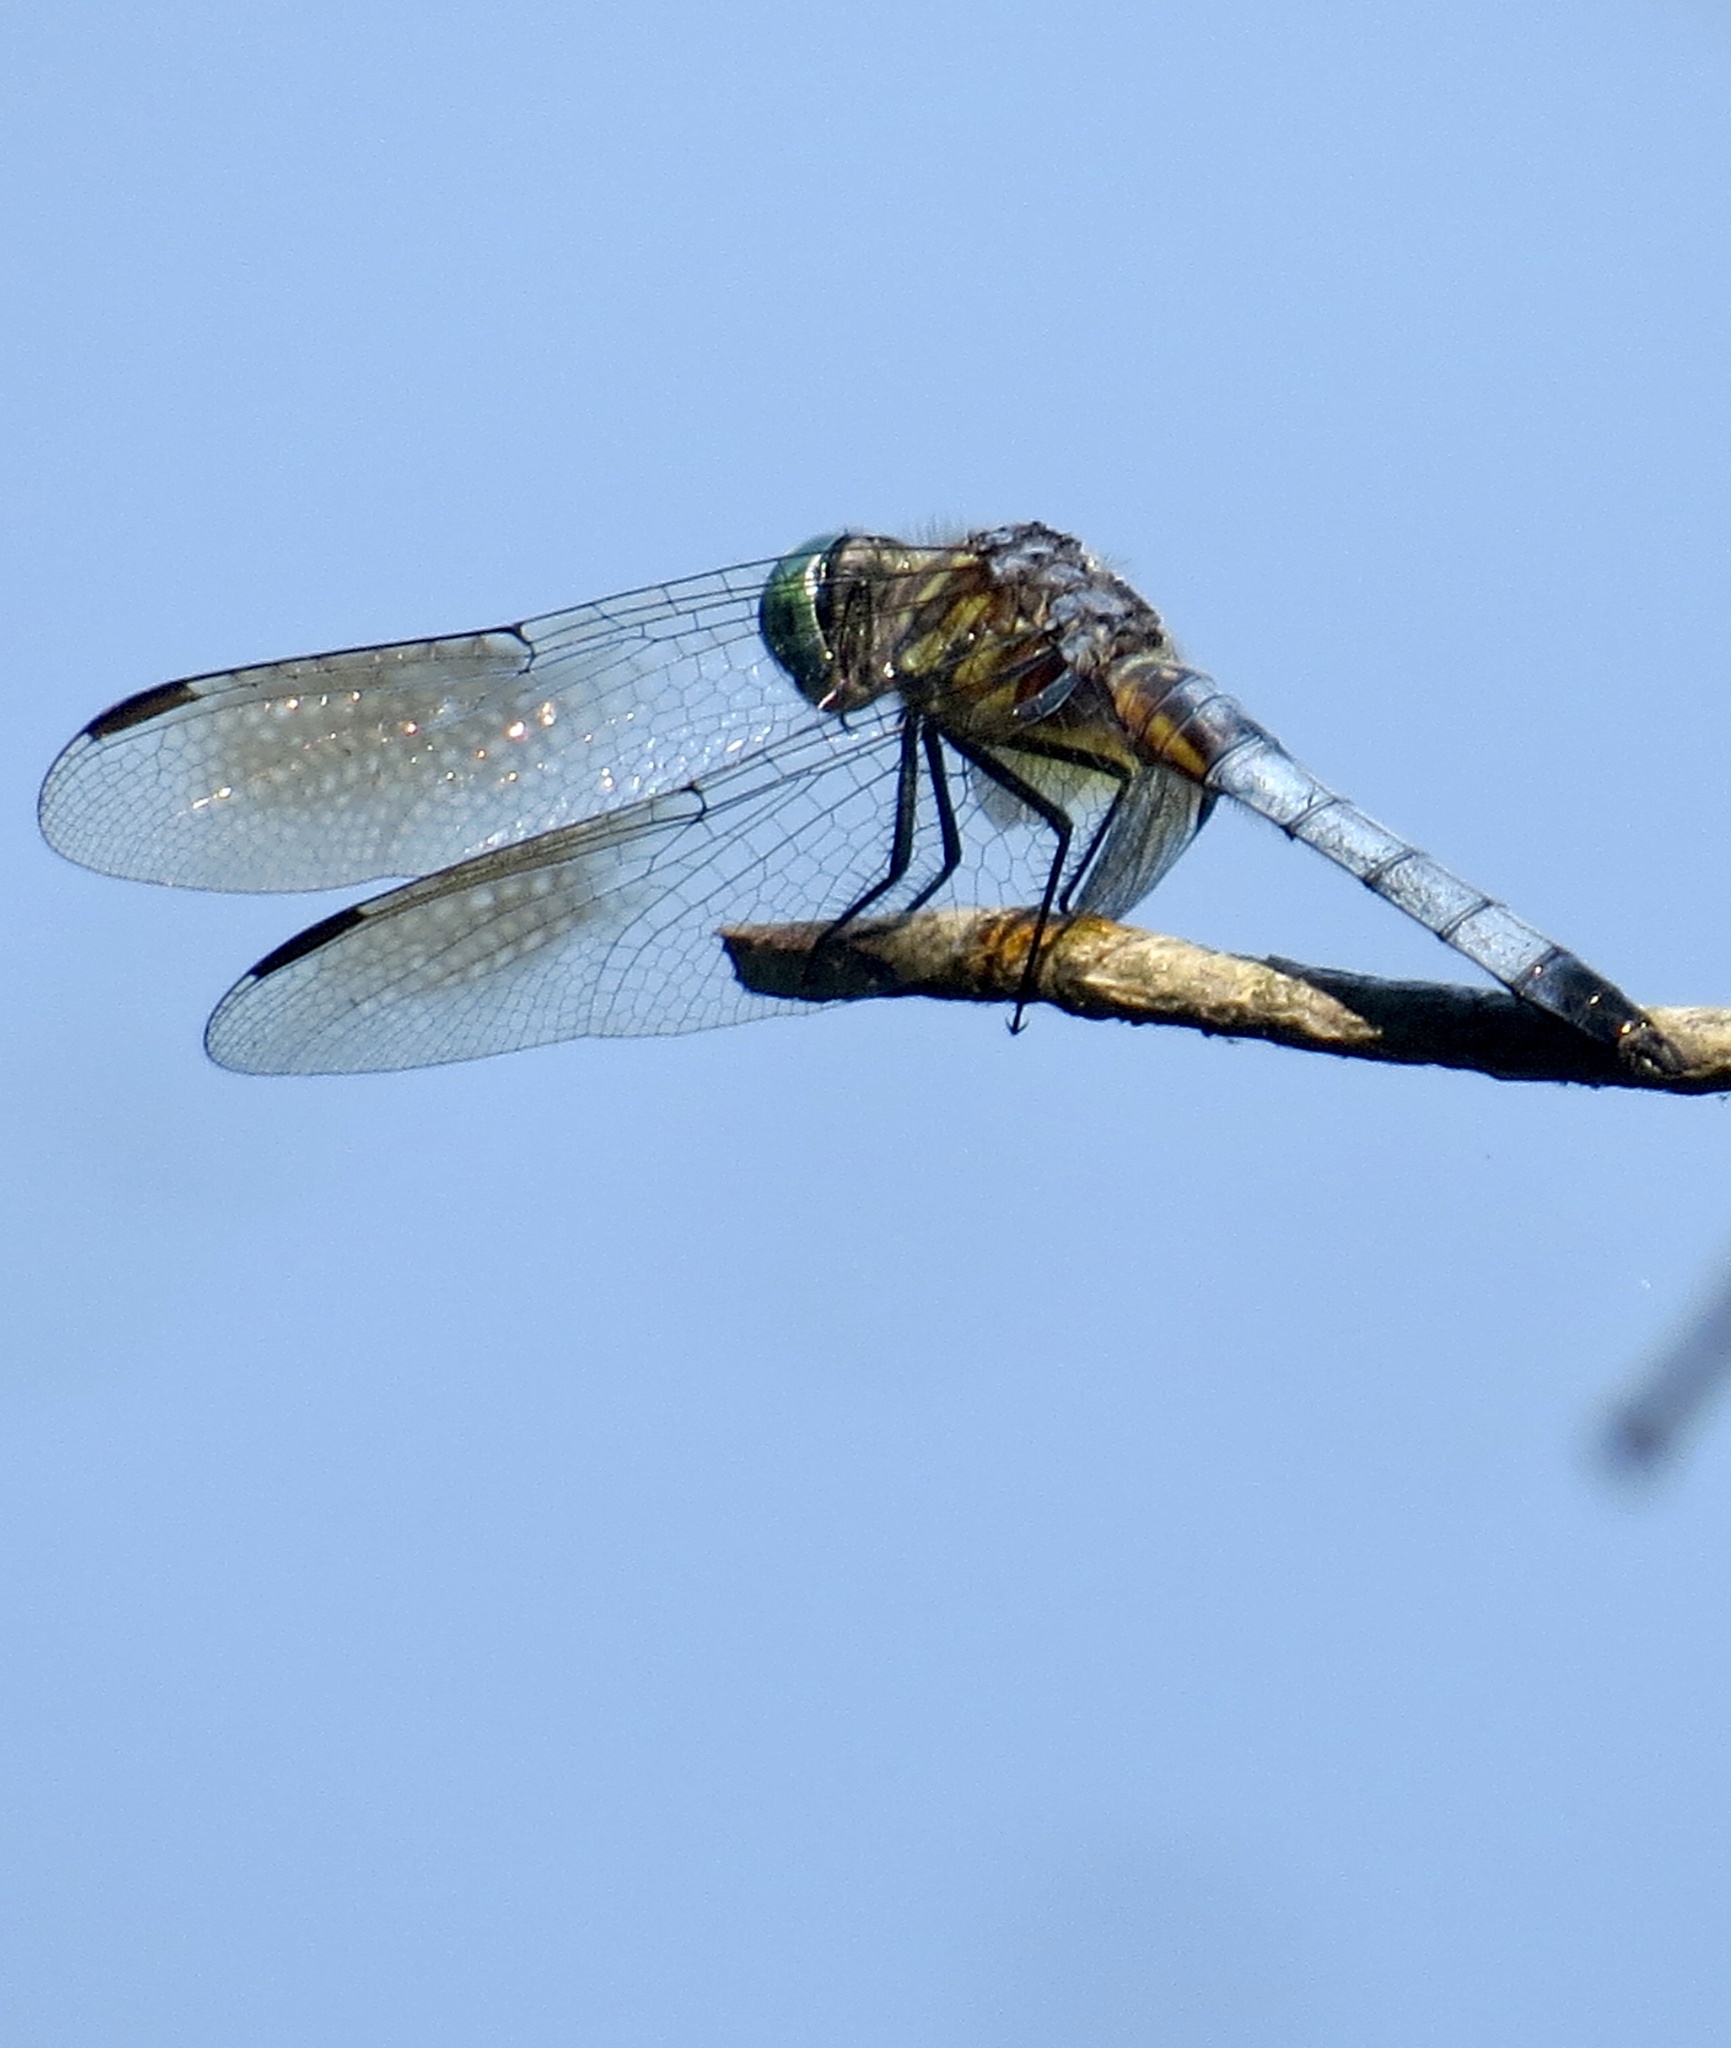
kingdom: Animalia
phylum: Arthropoda
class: Insecta
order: Odonata
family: Libellulidae
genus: Pachydiplax
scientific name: Pachydiplax longipennis
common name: Blue dasher
